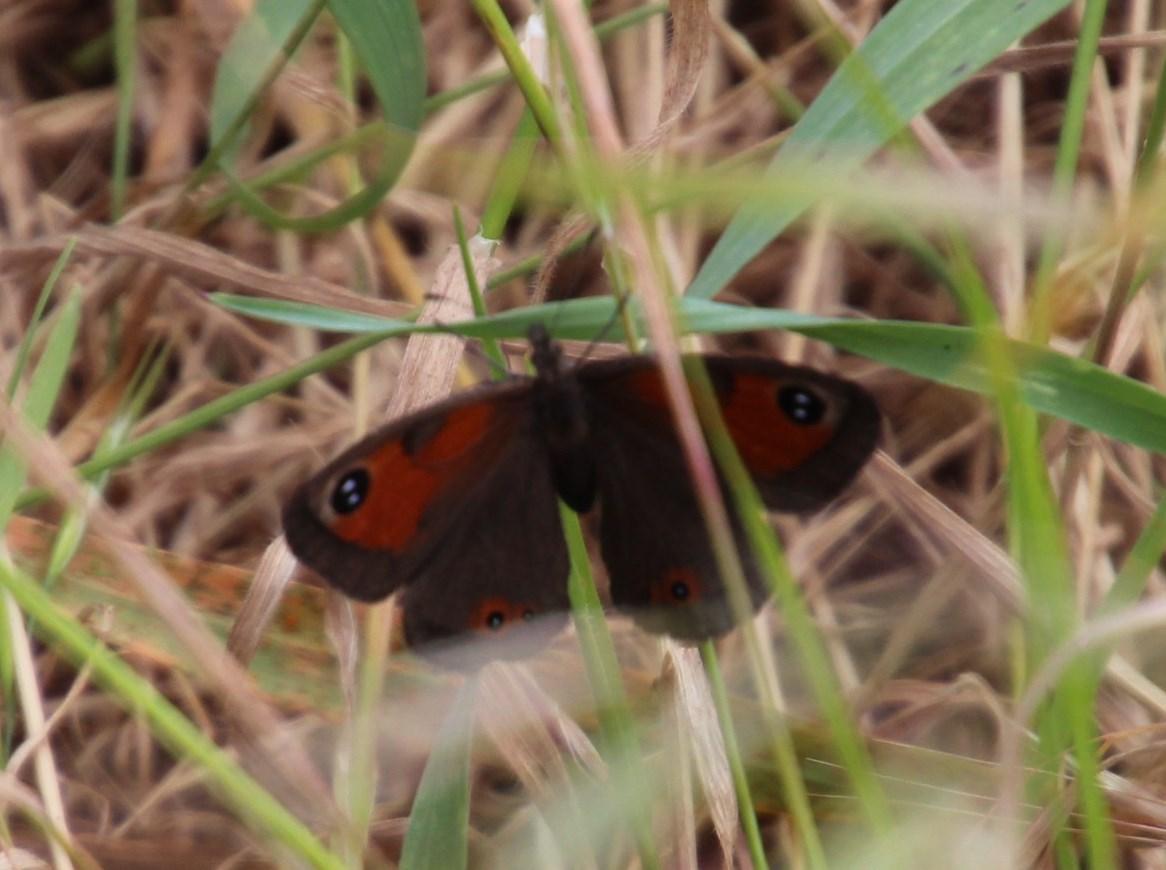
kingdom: Animalia
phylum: Arthropoda
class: Insecta
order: Lepidoptera
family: Nymphalidae
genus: Pseudonympha
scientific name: Pseudonympha magus
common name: Silver-bottom brown
